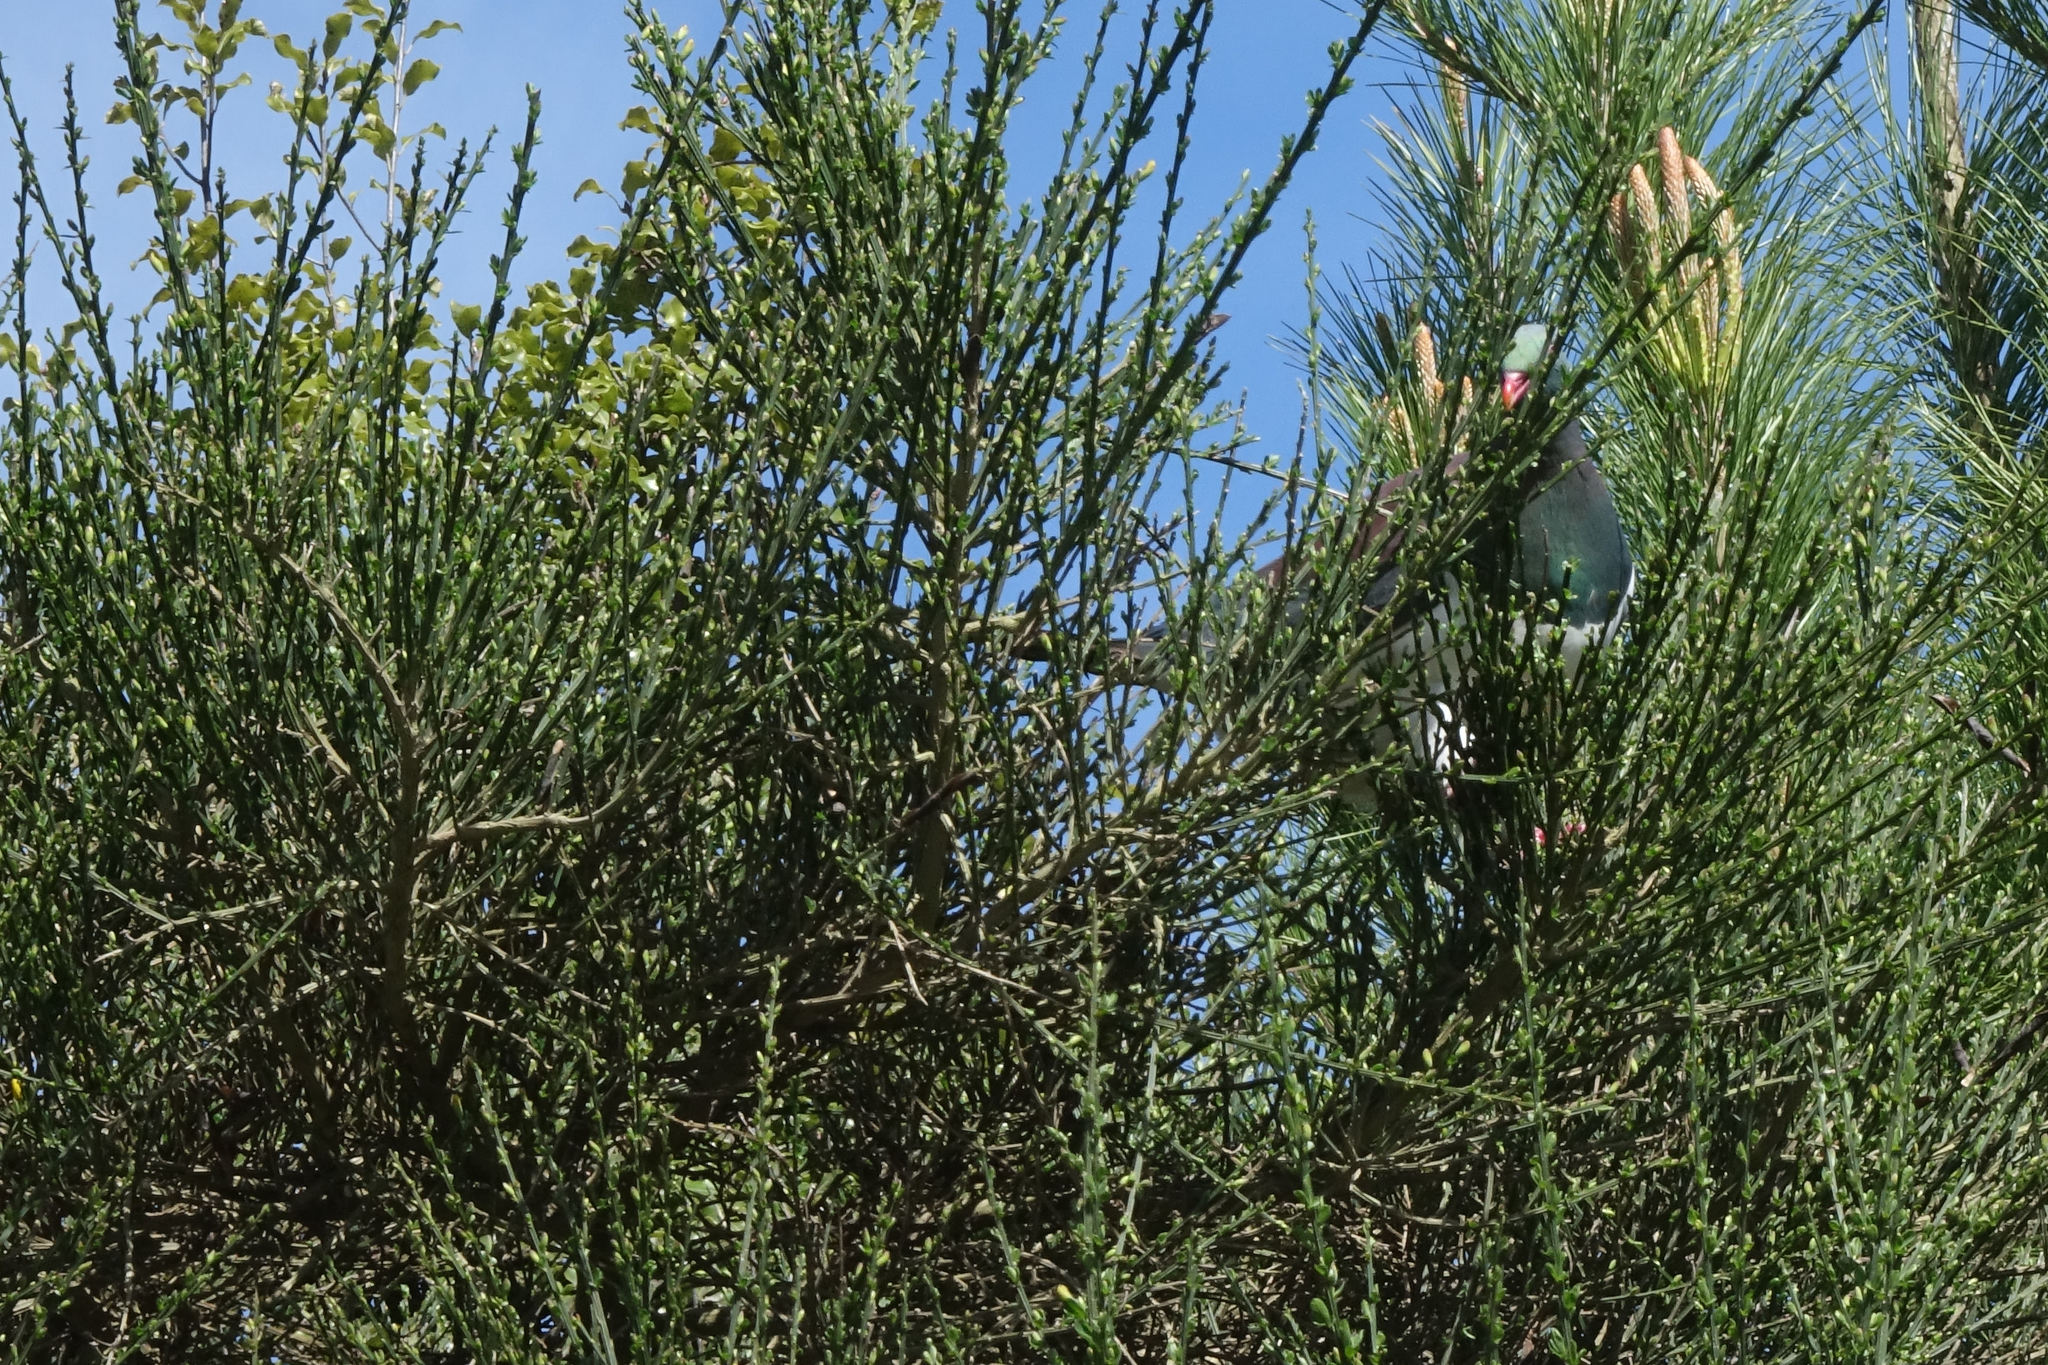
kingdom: Animalia
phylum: Chordata
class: Aves
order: Columbiformes
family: Columbidae
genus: Hemiphaga
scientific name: Hemiphaga novaeseelandiae
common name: New zealand pigeon
